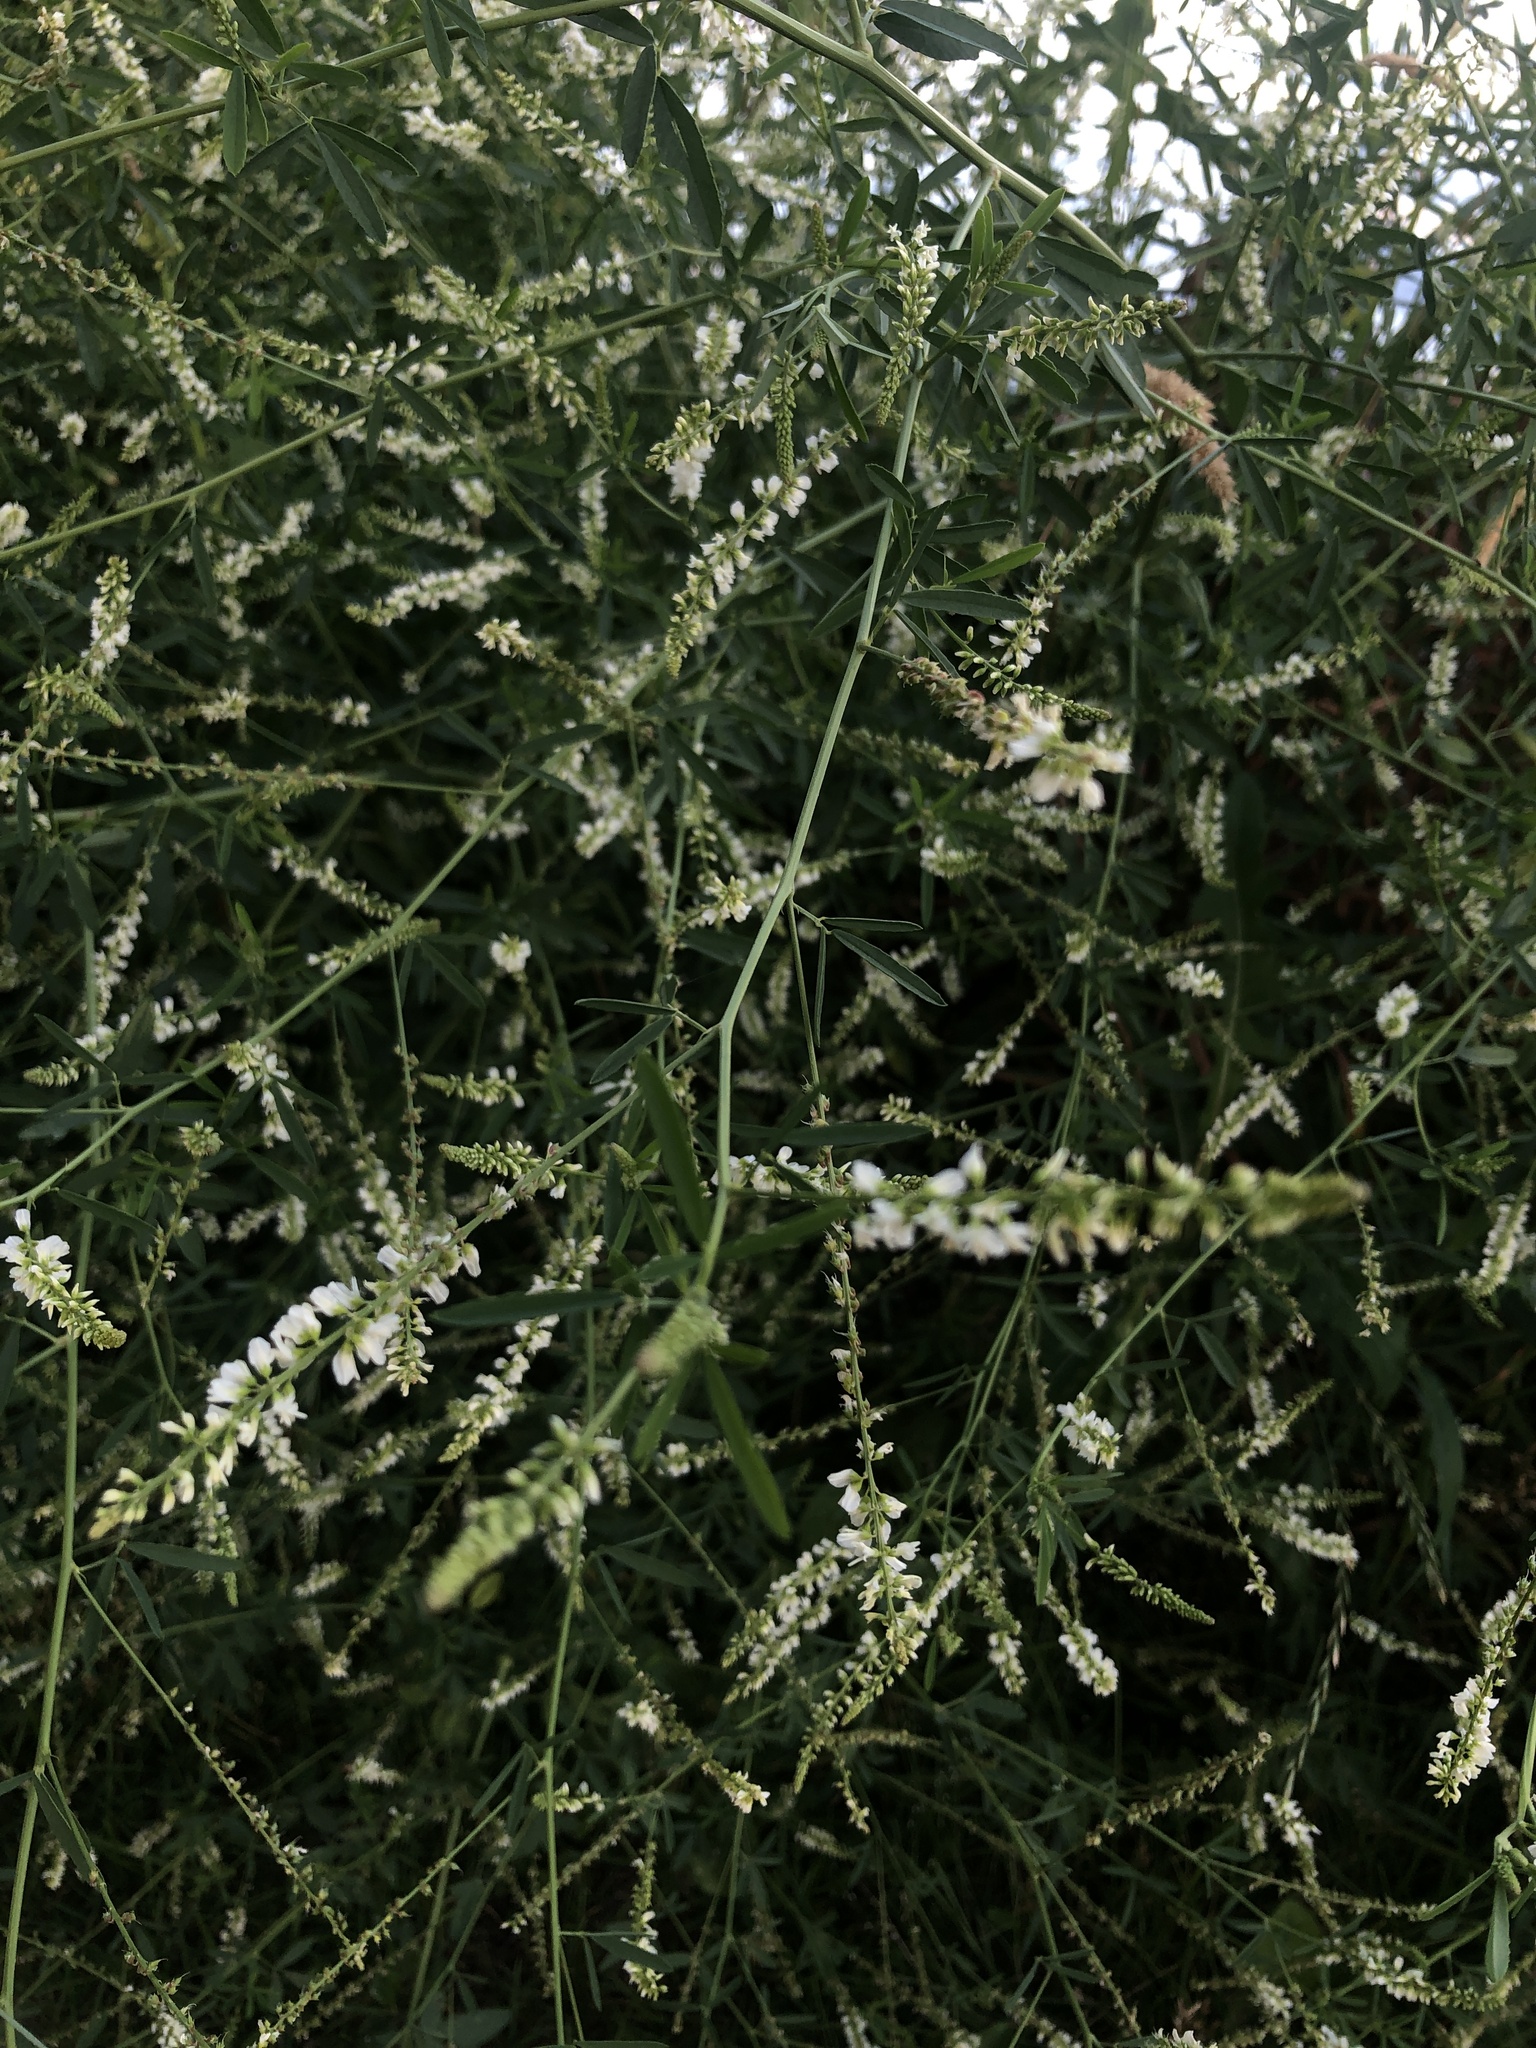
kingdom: Plantae
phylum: Tracheophyta
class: Magnoliopsida
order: Fabales
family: Fabaceae
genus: Melilotus
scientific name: Melilotus albus
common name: White melilot
